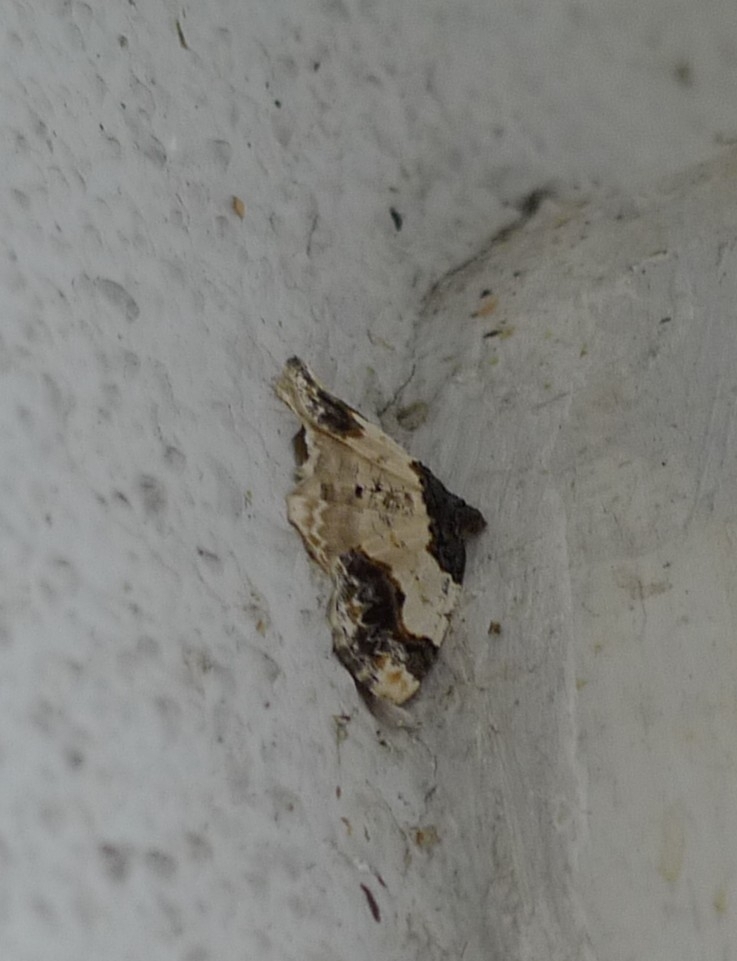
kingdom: Animalia
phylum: Arthropoda
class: Insecta
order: Lepidoptera
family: Geometridae
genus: Ligdia
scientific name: Ligdia adustata
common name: Scorched carpet
